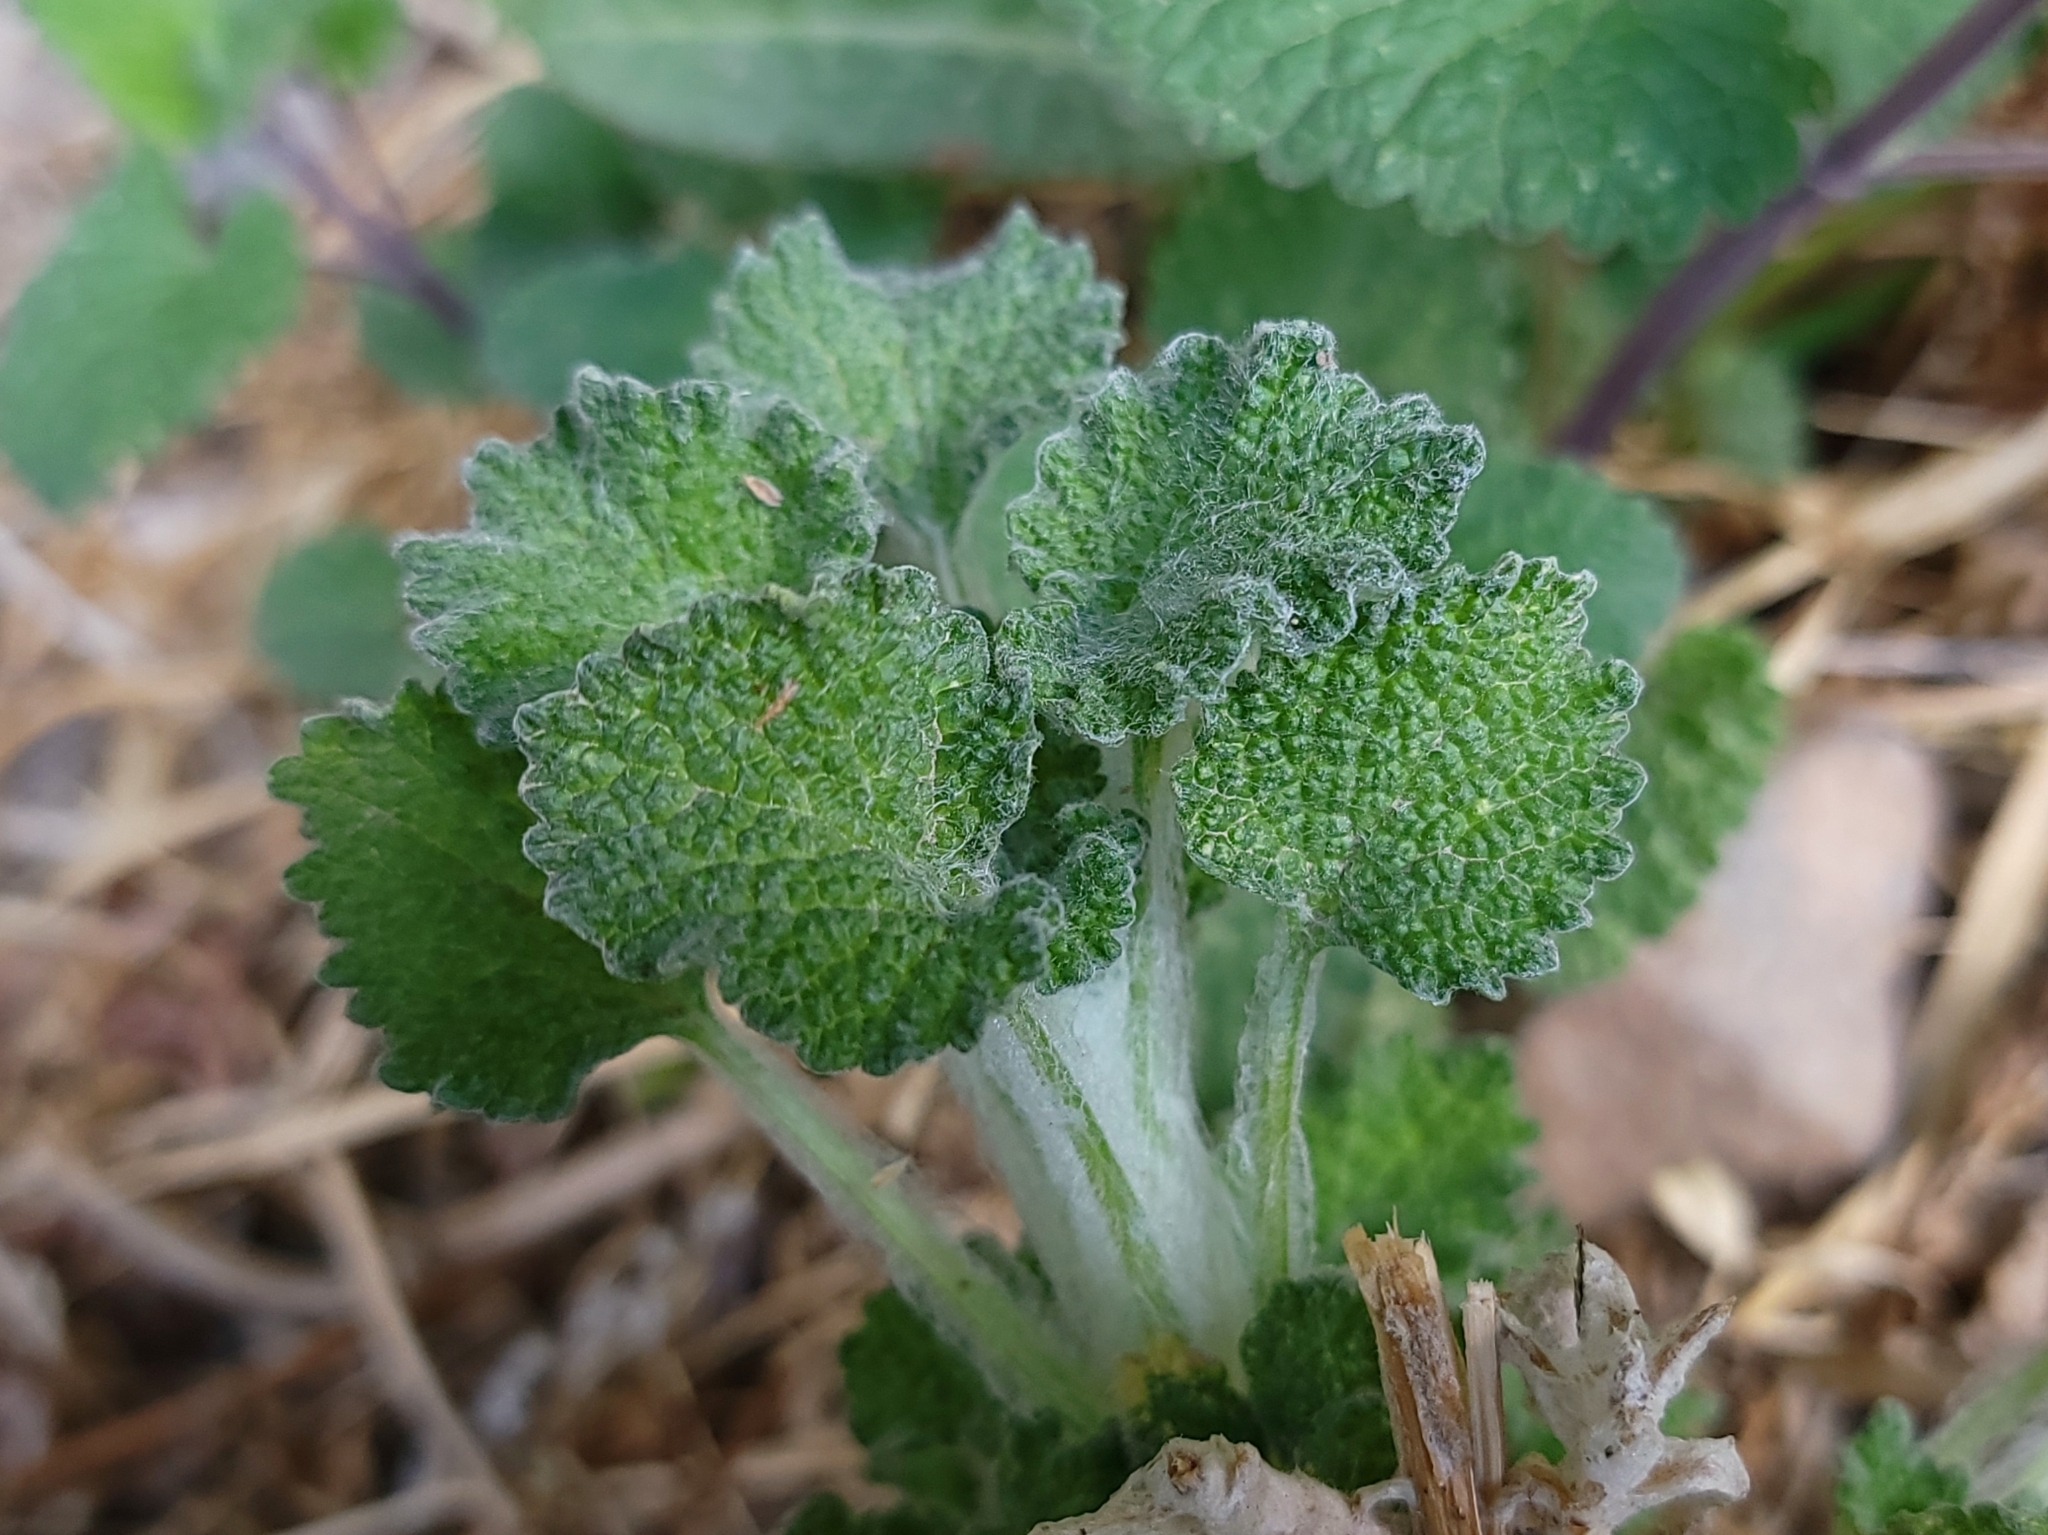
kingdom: Plantae
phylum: Tracheophyta
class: Magnoliopsida
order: Lamiales
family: Lamiaceae
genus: Marrubium
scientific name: Marrubium vulgare
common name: Horehound
